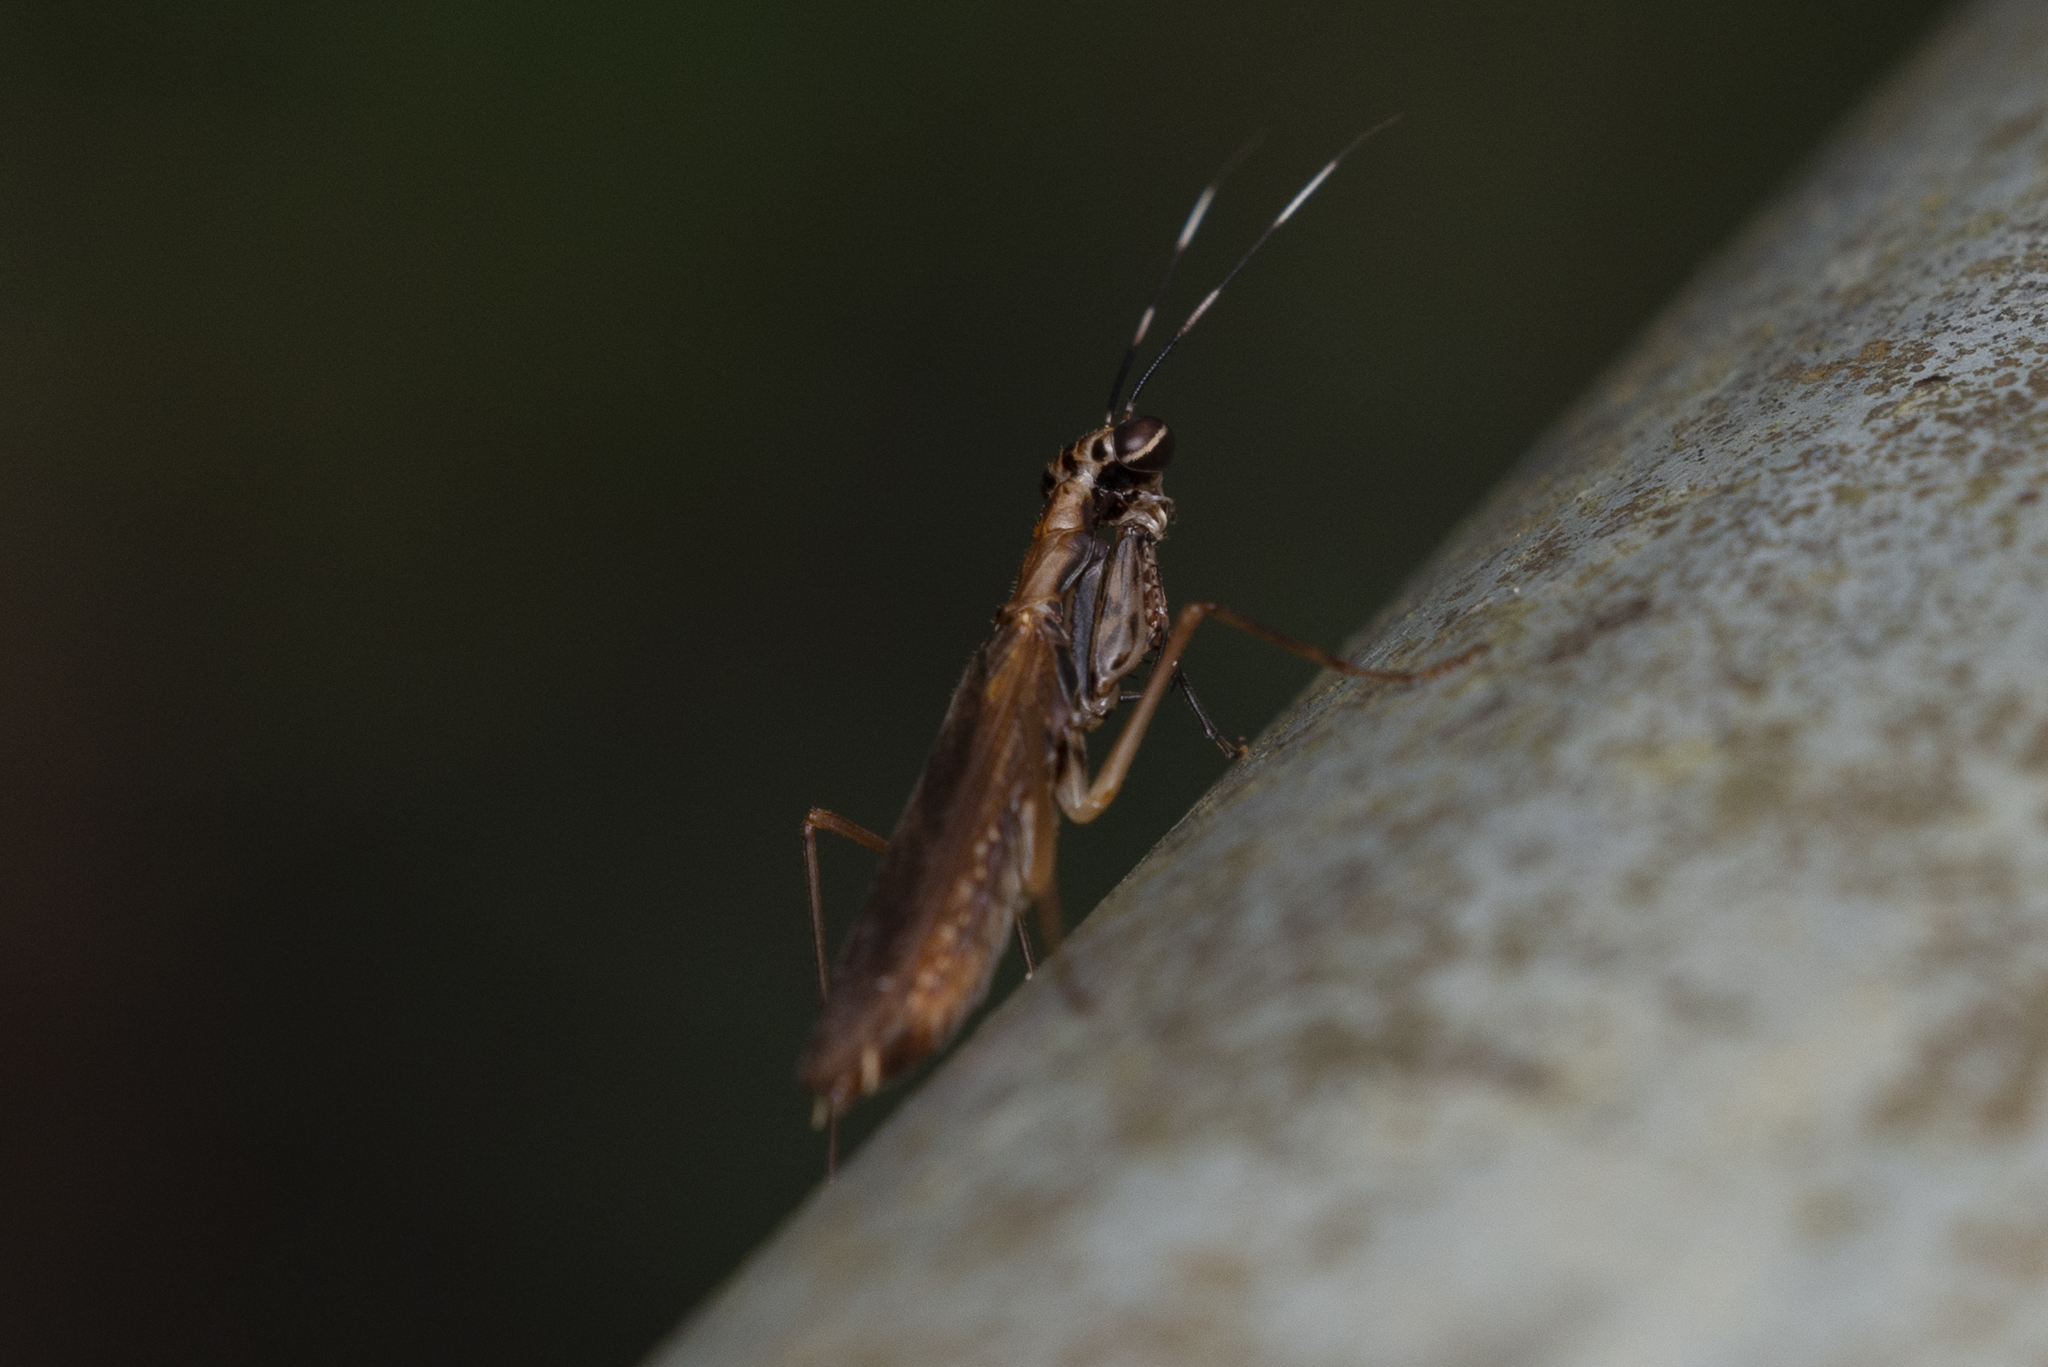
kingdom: Animalia
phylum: Arthropoda
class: Insecta
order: Mantodea
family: Gonypetidae
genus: Spilomantis
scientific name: Spilomantis occipitalis
